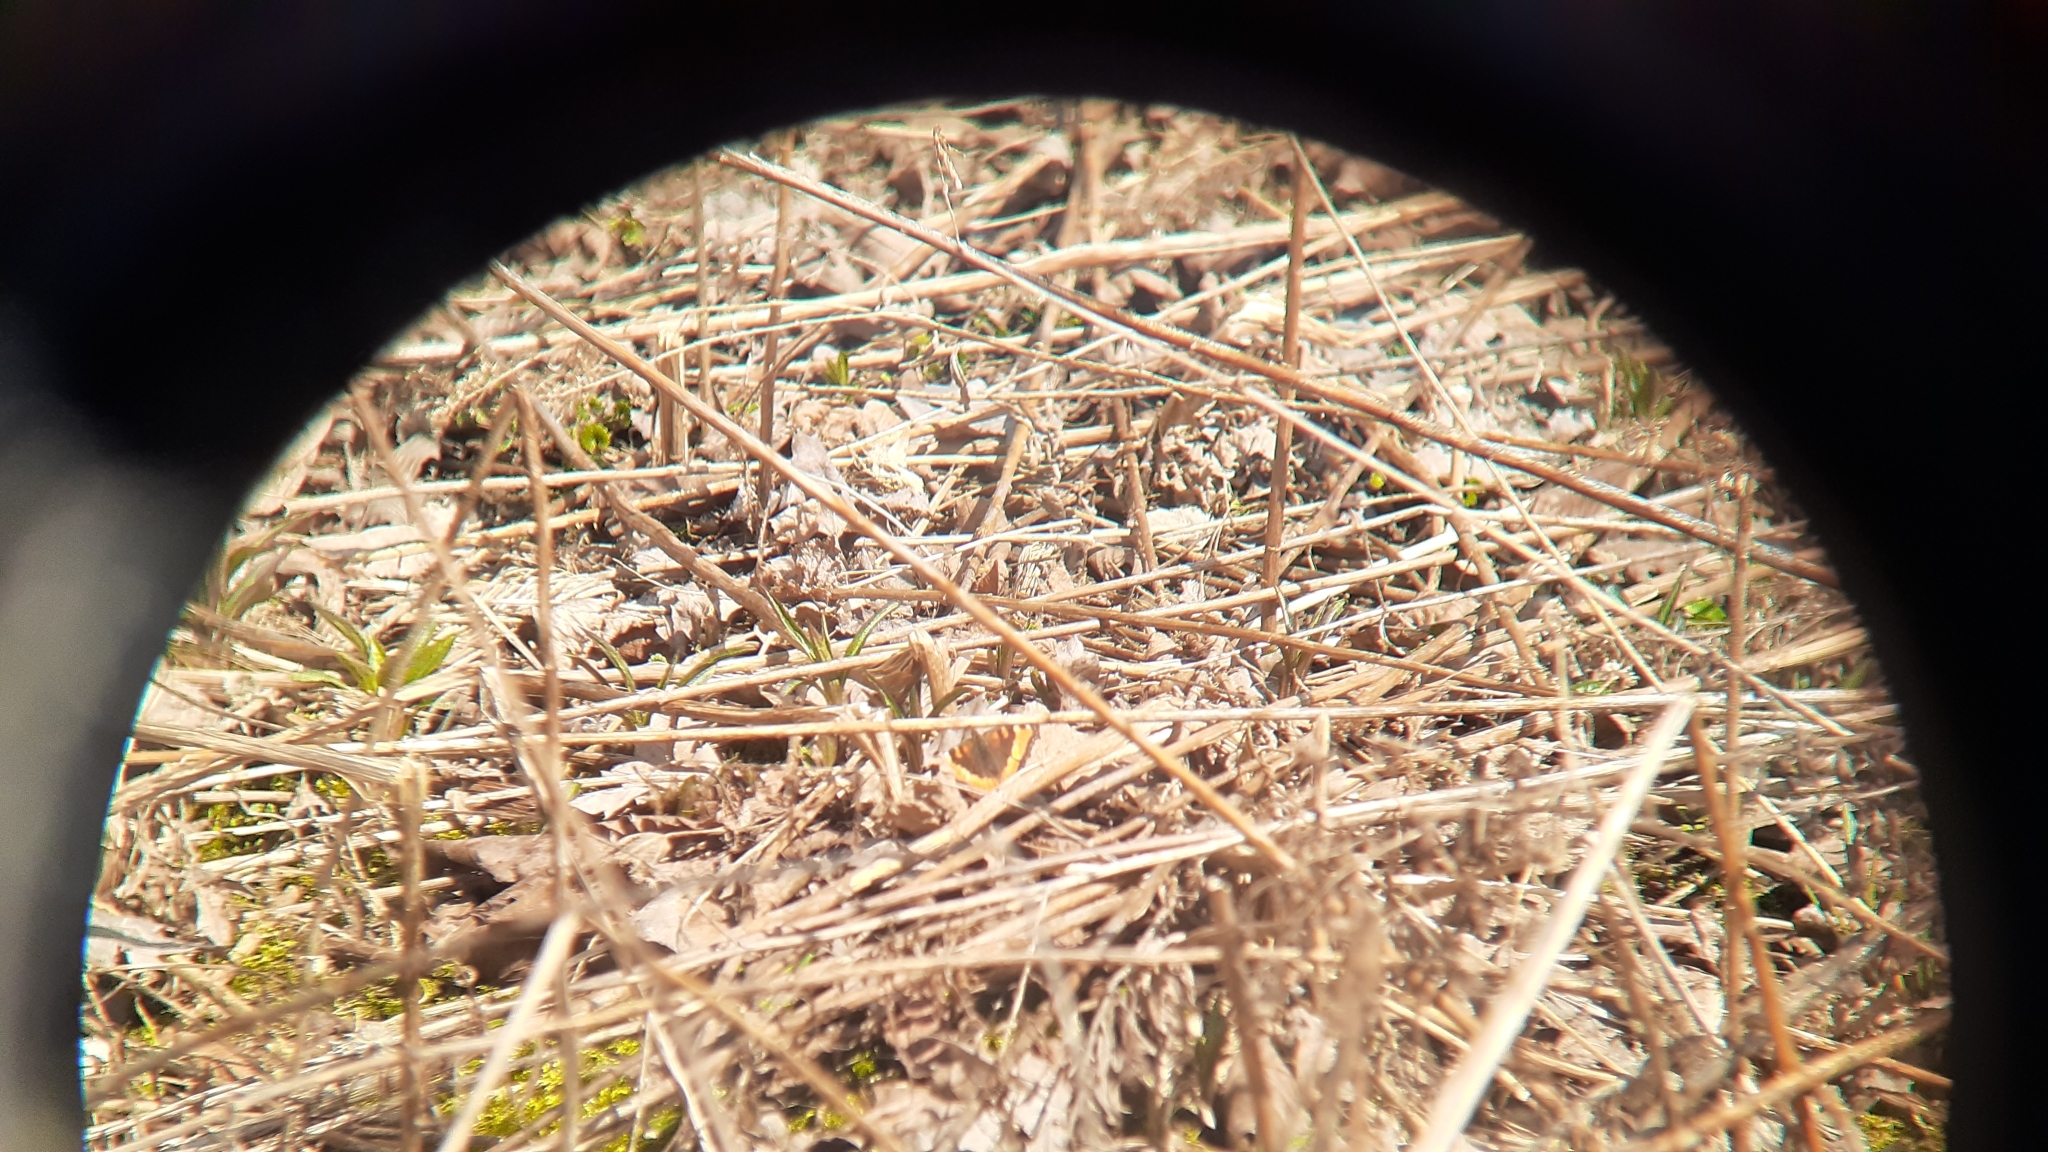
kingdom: Animalia
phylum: Arthropoda
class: Insecta
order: Lepidoptera
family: Nymphalidae
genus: Aglais
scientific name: Aglais milberti
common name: Milbert's tortoiseshell
